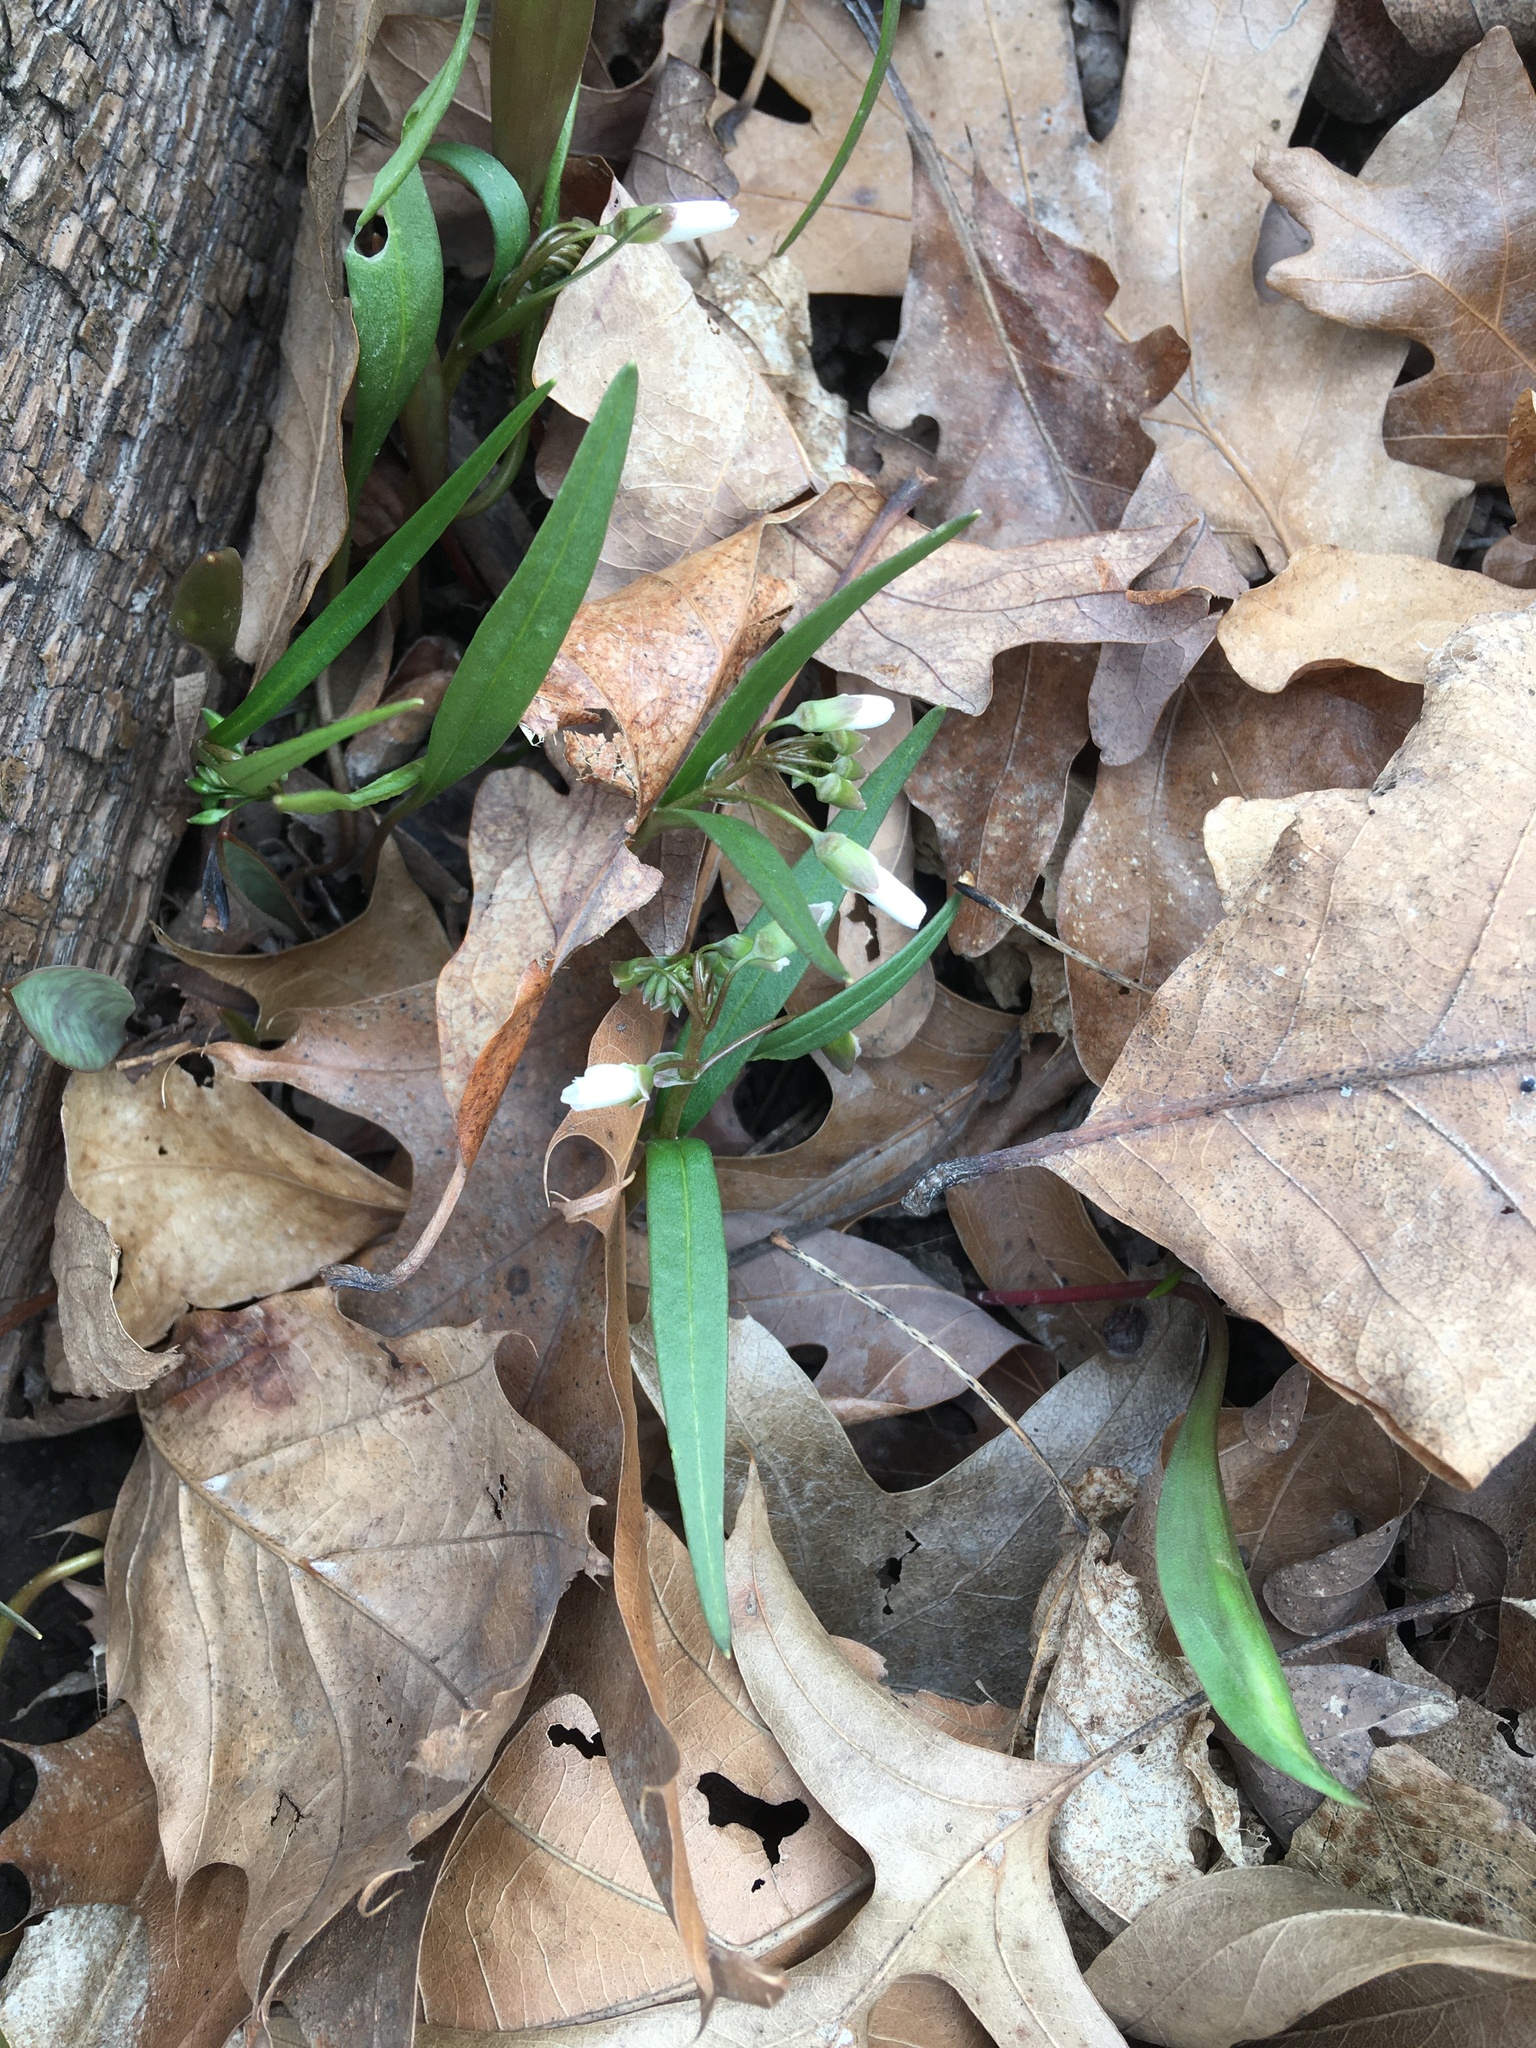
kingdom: Plantae
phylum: Tracheophyta
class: Magnoliopsida
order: Caryophyllales
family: Montiaceae
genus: Claytonia
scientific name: Claytonia virginica
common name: Virginia springbeauty
